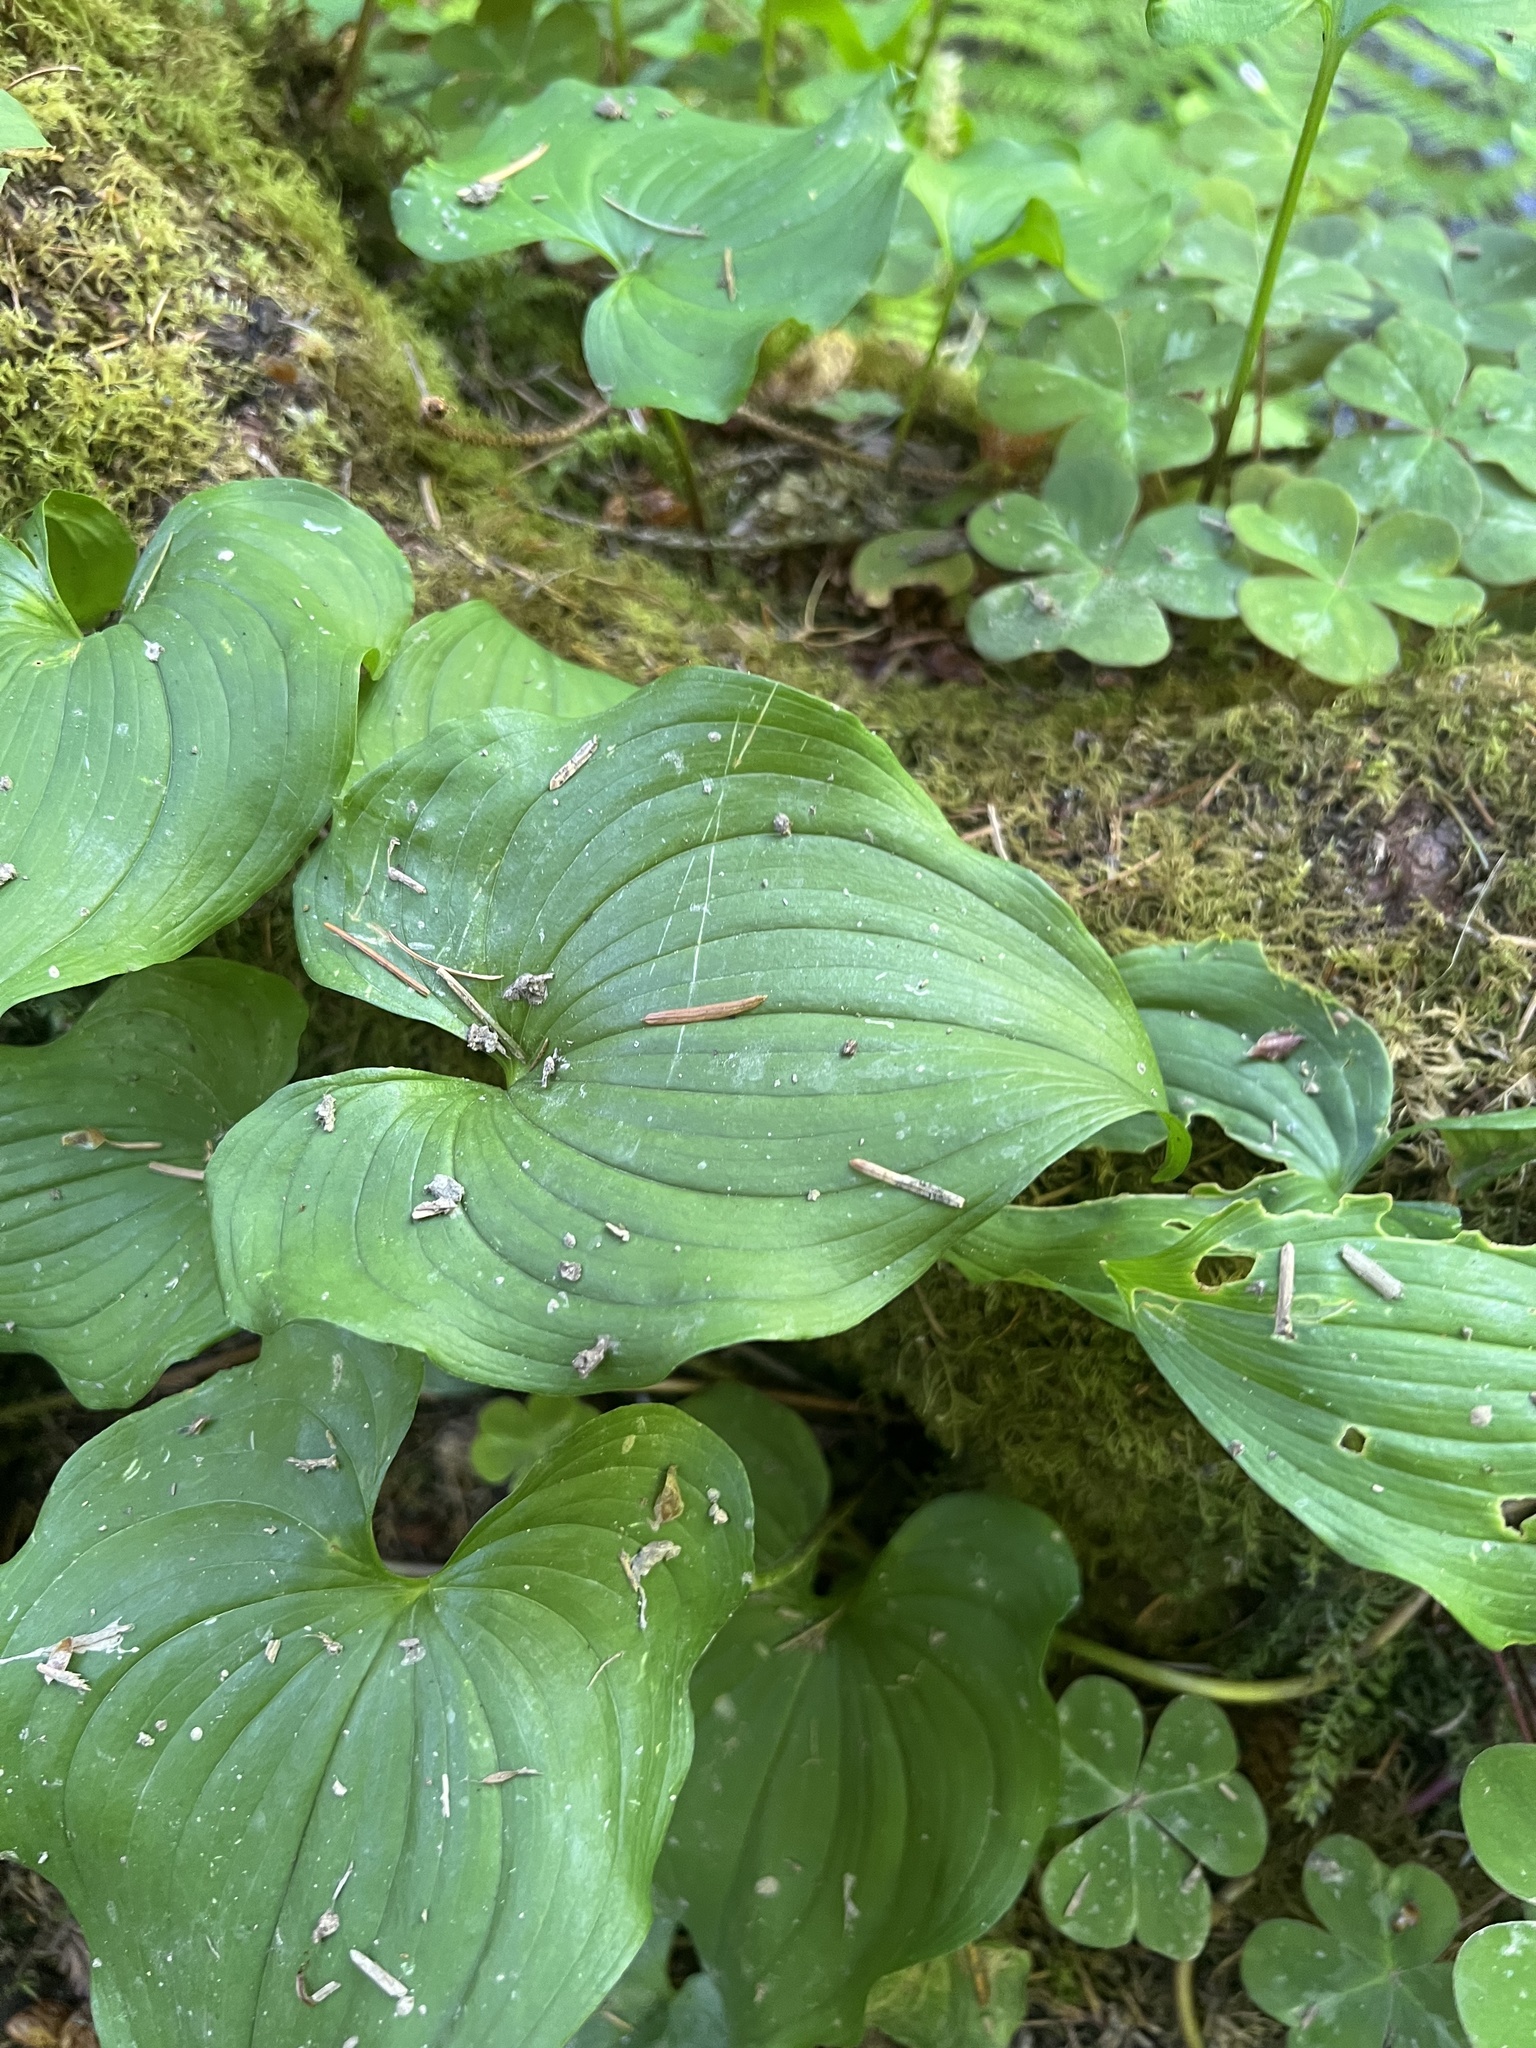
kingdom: Plantae
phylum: Tracheophyta
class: Liliopsida
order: Asparagales
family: Asparagaceae
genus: Maianthemum
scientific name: Maianthemum dilatatum
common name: False lily-of-the-valley
